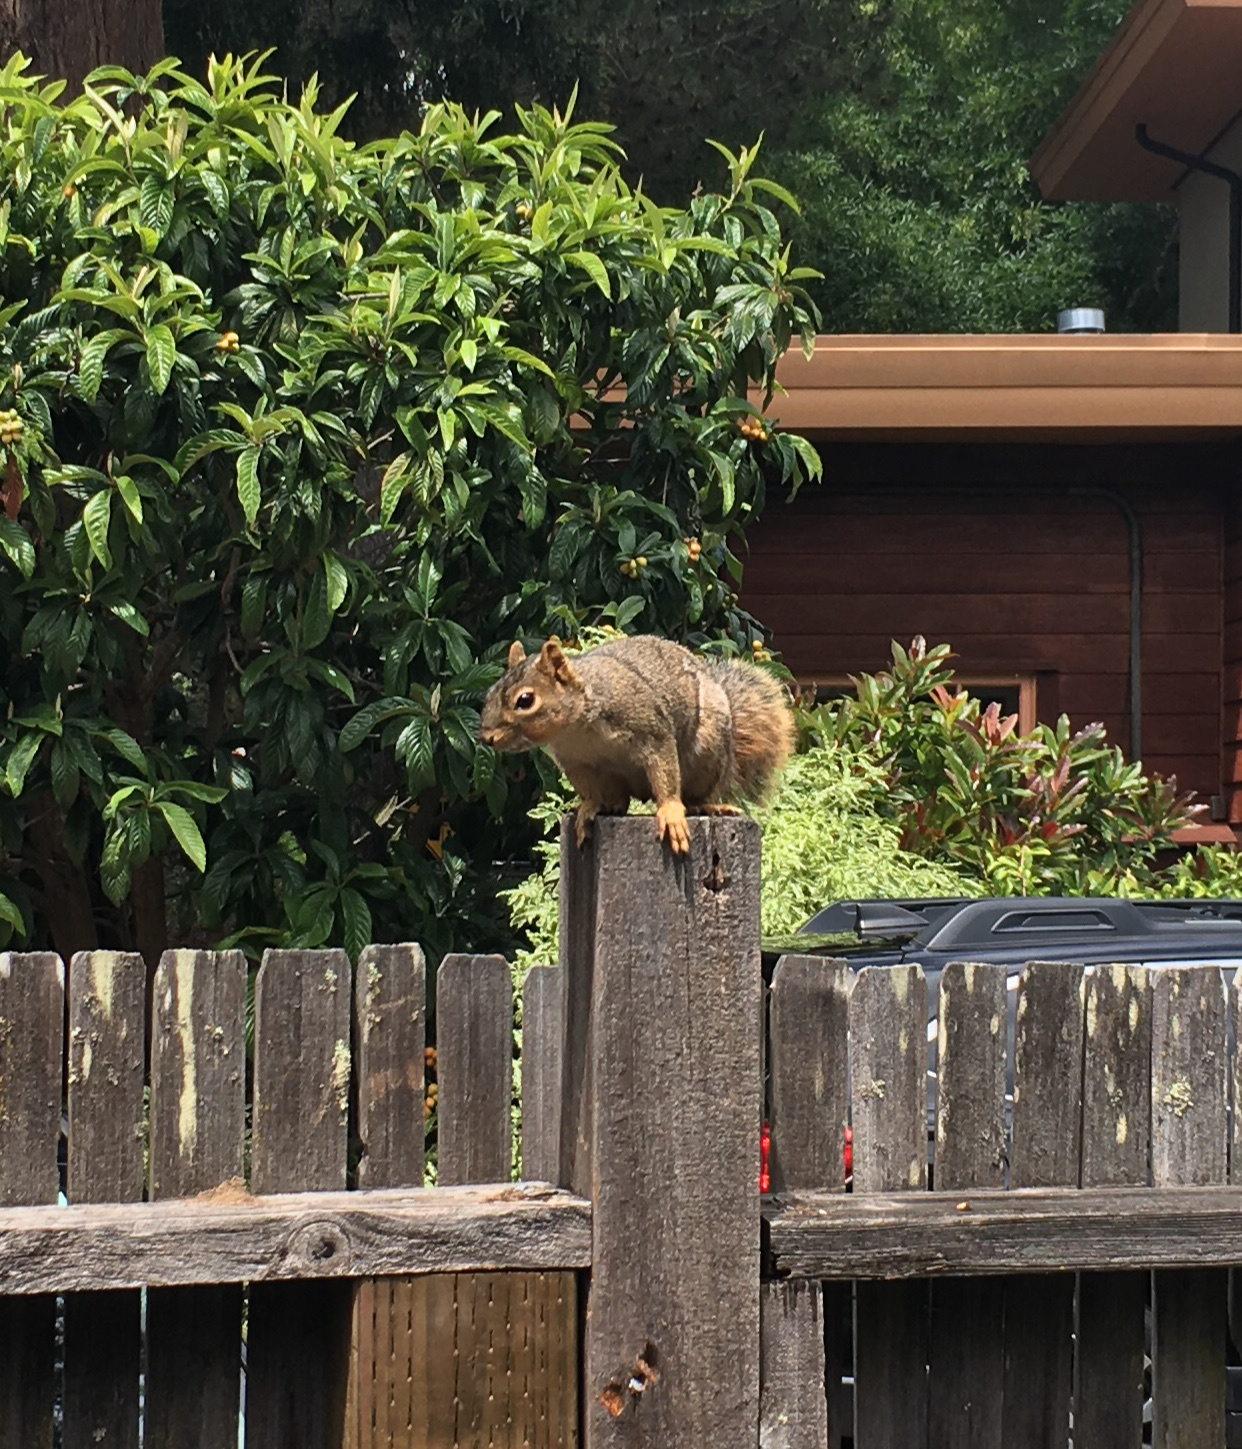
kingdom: Animalia
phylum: Chordata
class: Mammalia
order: Rodentia
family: Sciuridae
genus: Sciurus
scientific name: Sciurus niger
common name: Fox squirrel
